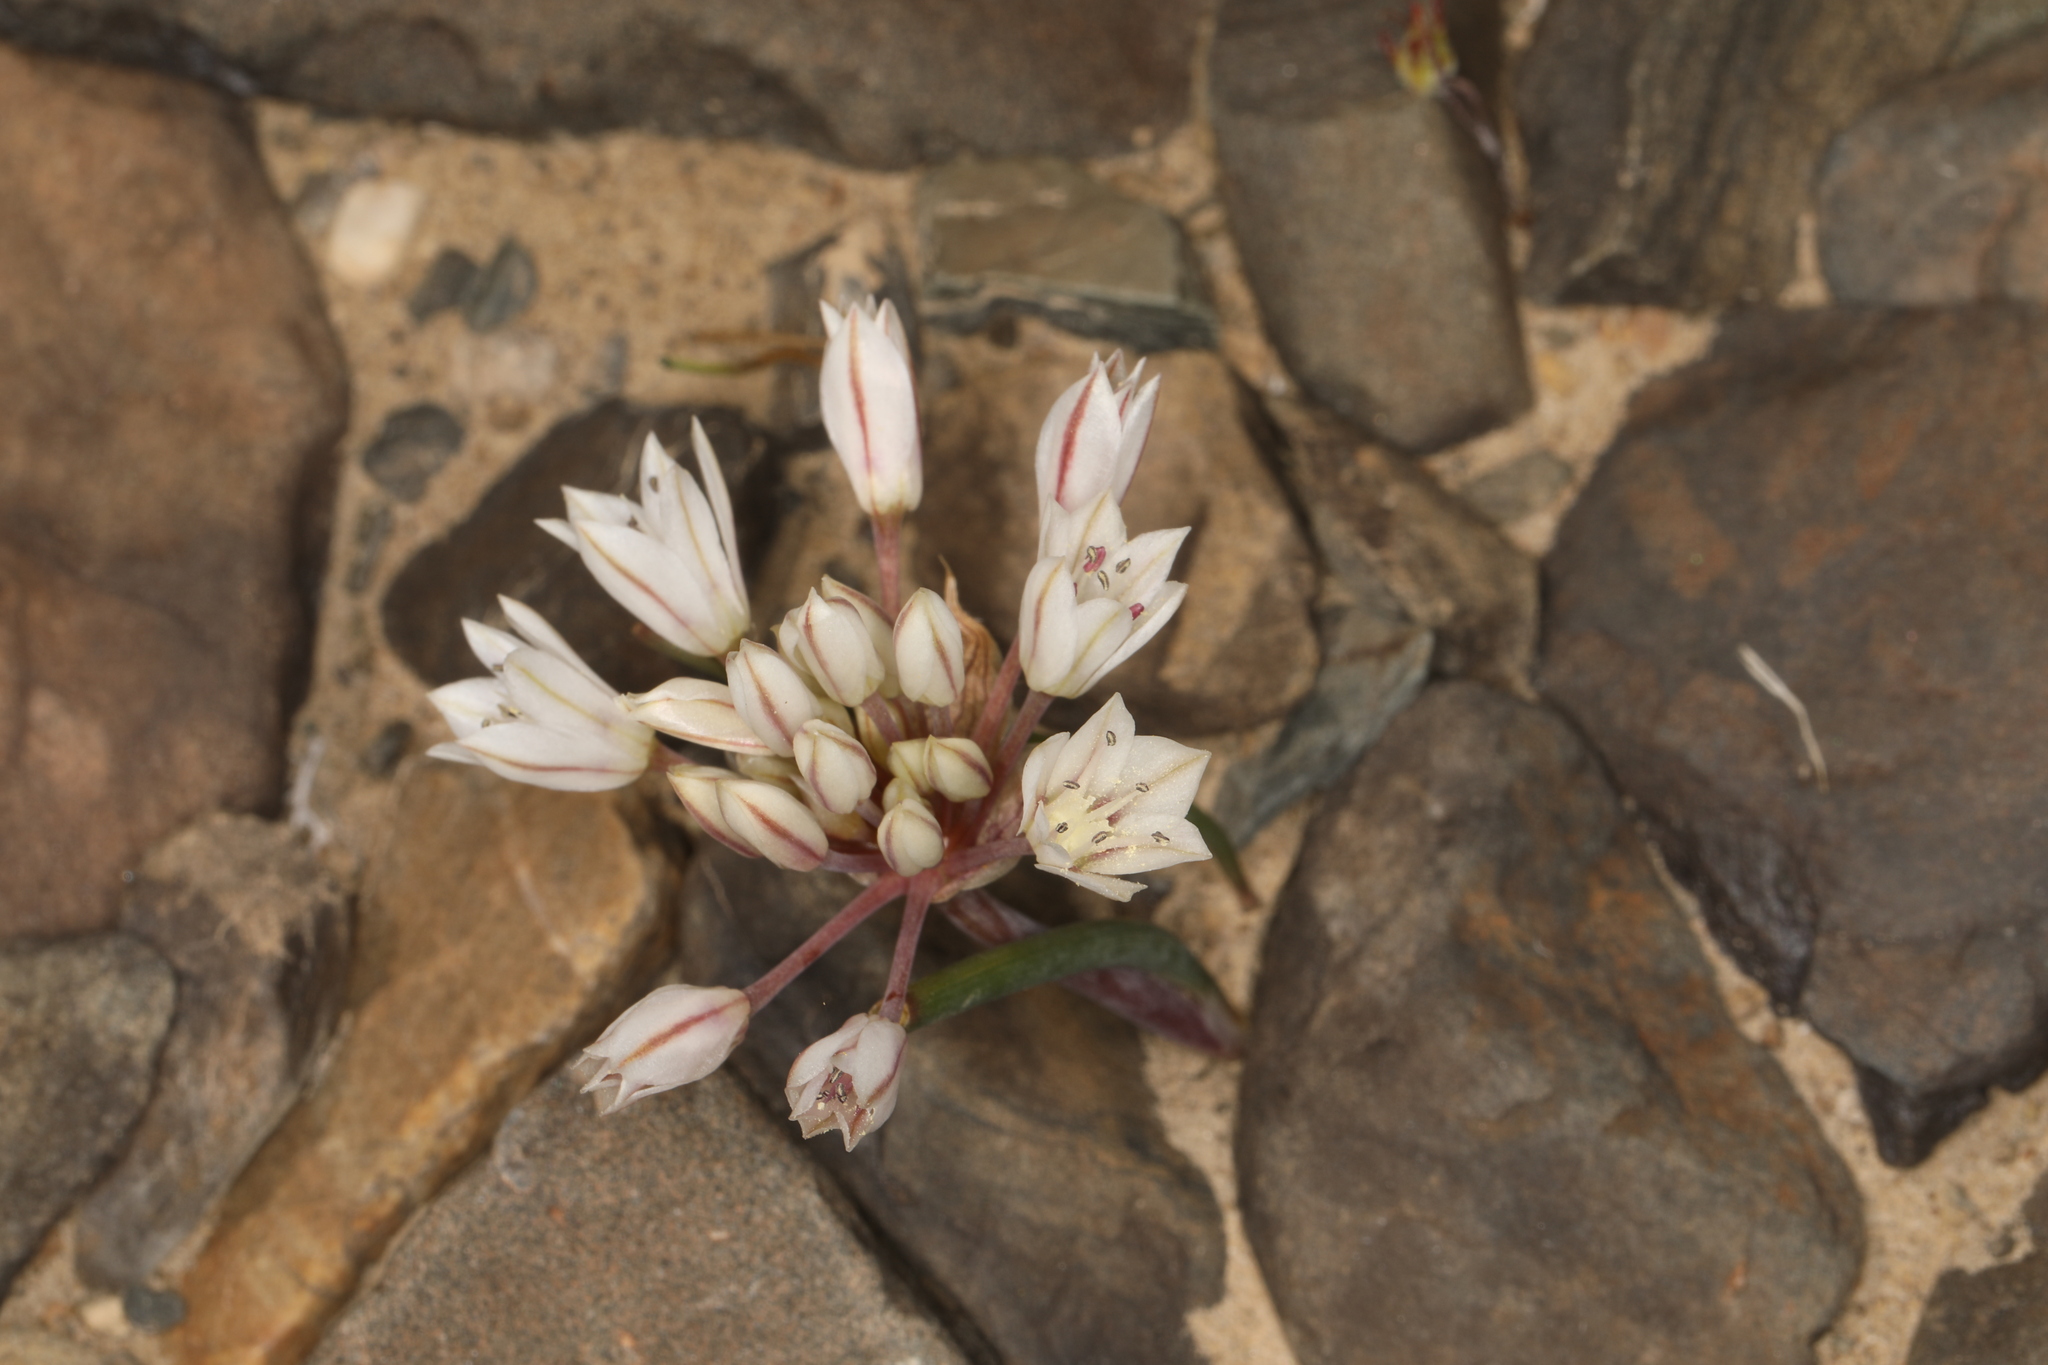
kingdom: Plantae
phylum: Tracheophyta
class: Liliopsida
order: Asparagales
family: Amaryllidaceae
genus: Allium
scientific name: Allium atrorubens
